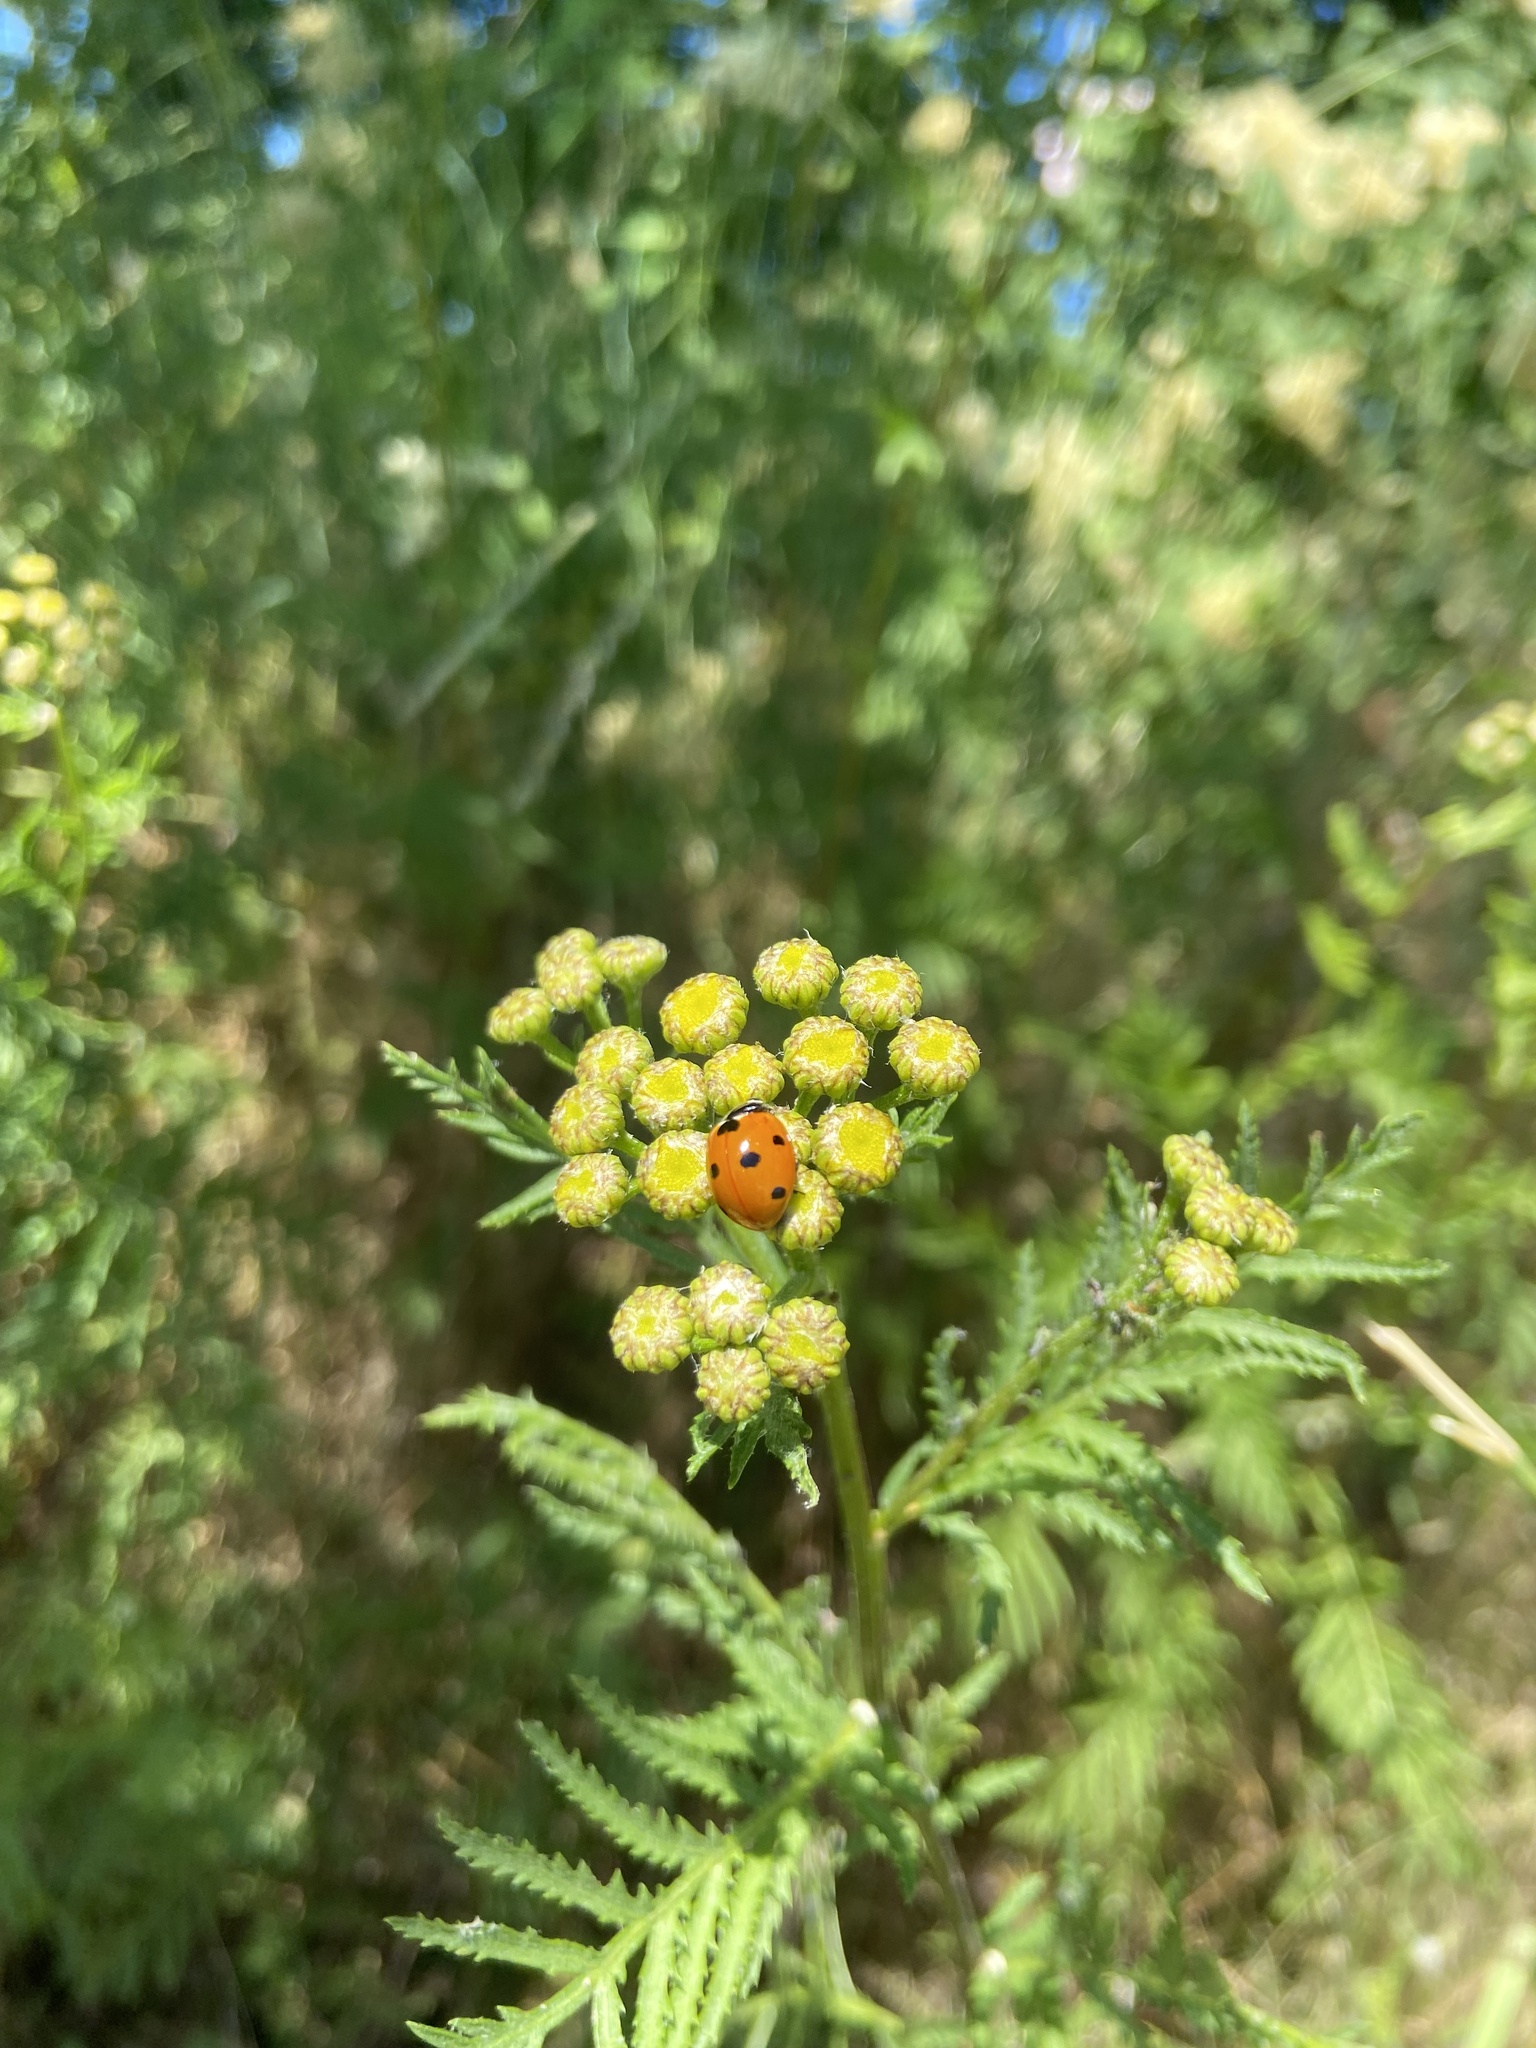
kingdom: Animalia
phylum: Arthropoda
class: Insecta
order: Coleoptera
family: Coccinellidae
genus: Coccinella
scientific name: Coccinella septempunctata
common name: Sevenspotted lady beetle
